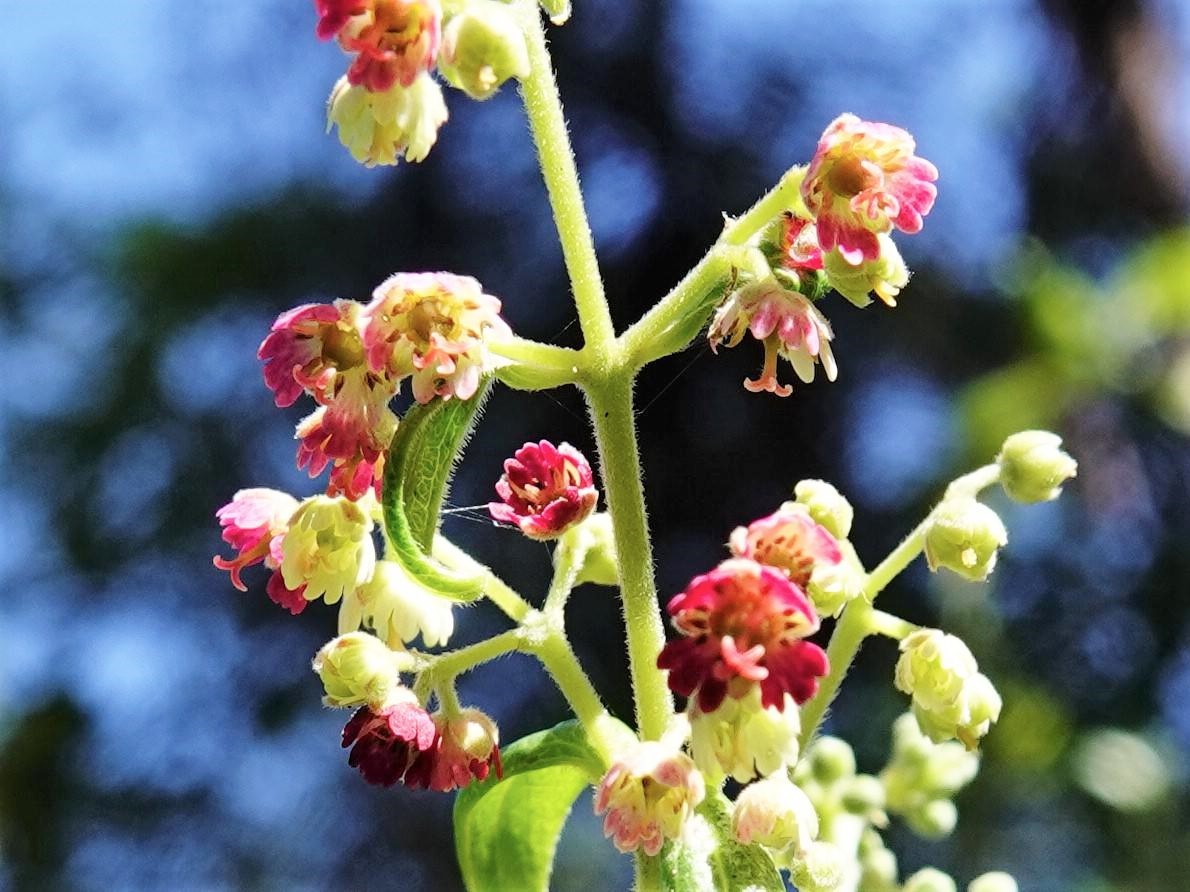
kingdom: Plantae
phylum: Tracheophyta
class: Magnoliopsida
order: Oxalidales
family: Elaeocarpaceae
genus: Aristotelia
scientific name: Aristotelia serrata
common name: New zealand wineberry
